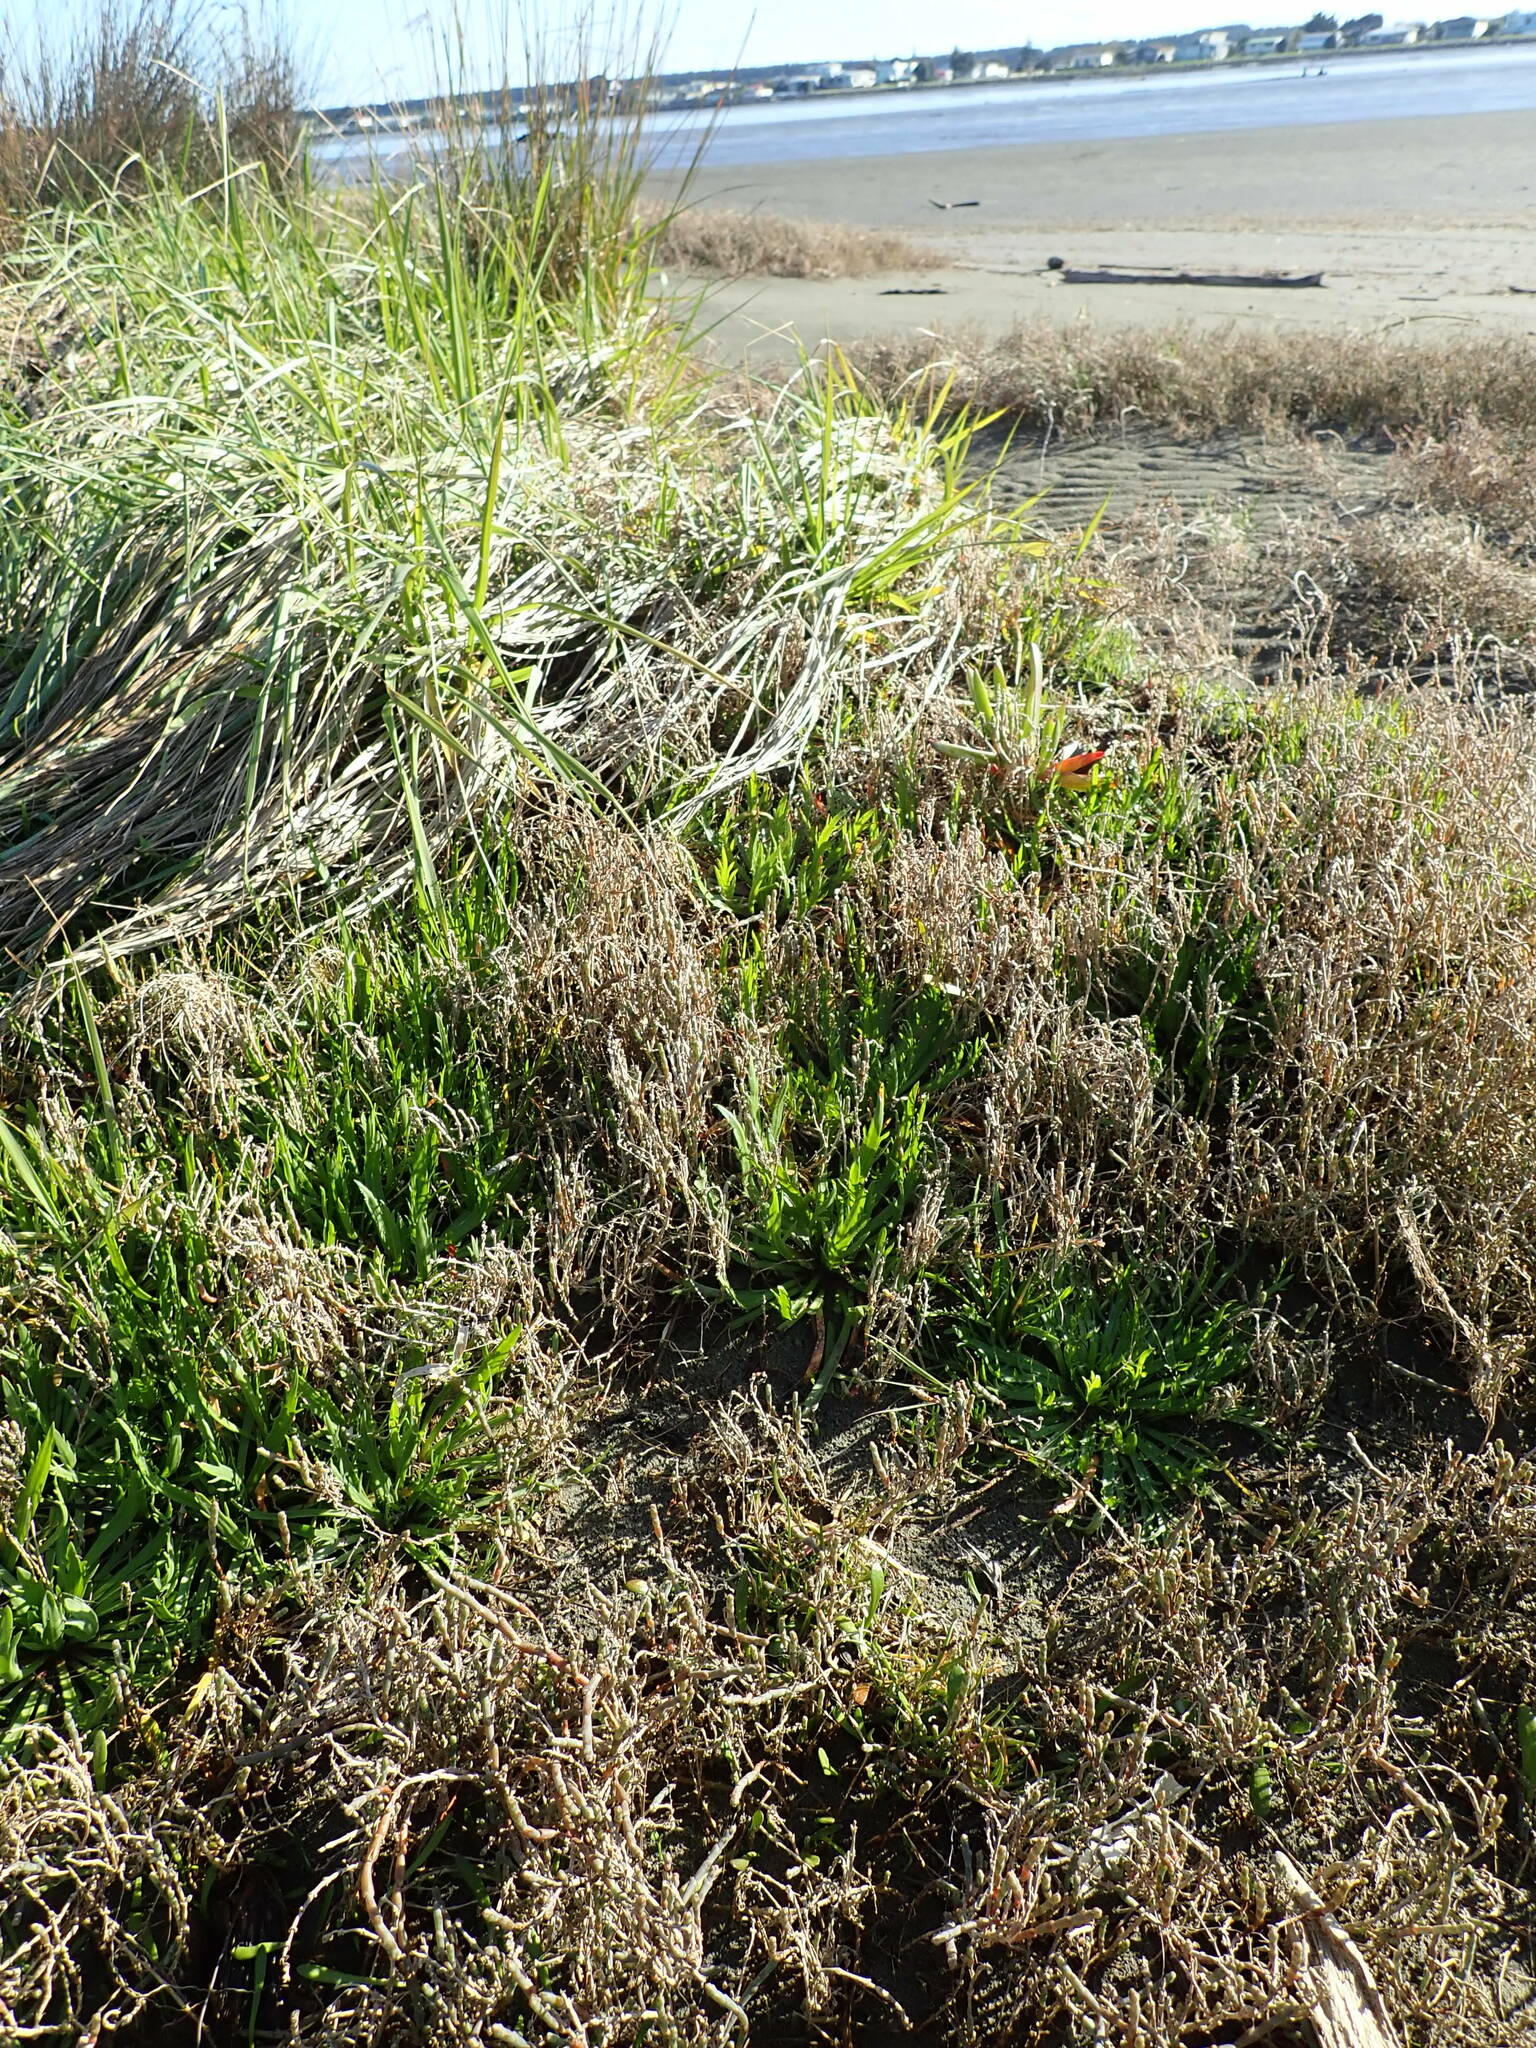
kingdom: Plantae
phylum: Tracheophyta
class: Magnoliopsida
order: Apiales
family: Apiaceae
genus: Apium
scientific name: Apium prostratum
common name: Prostrate marshwort
